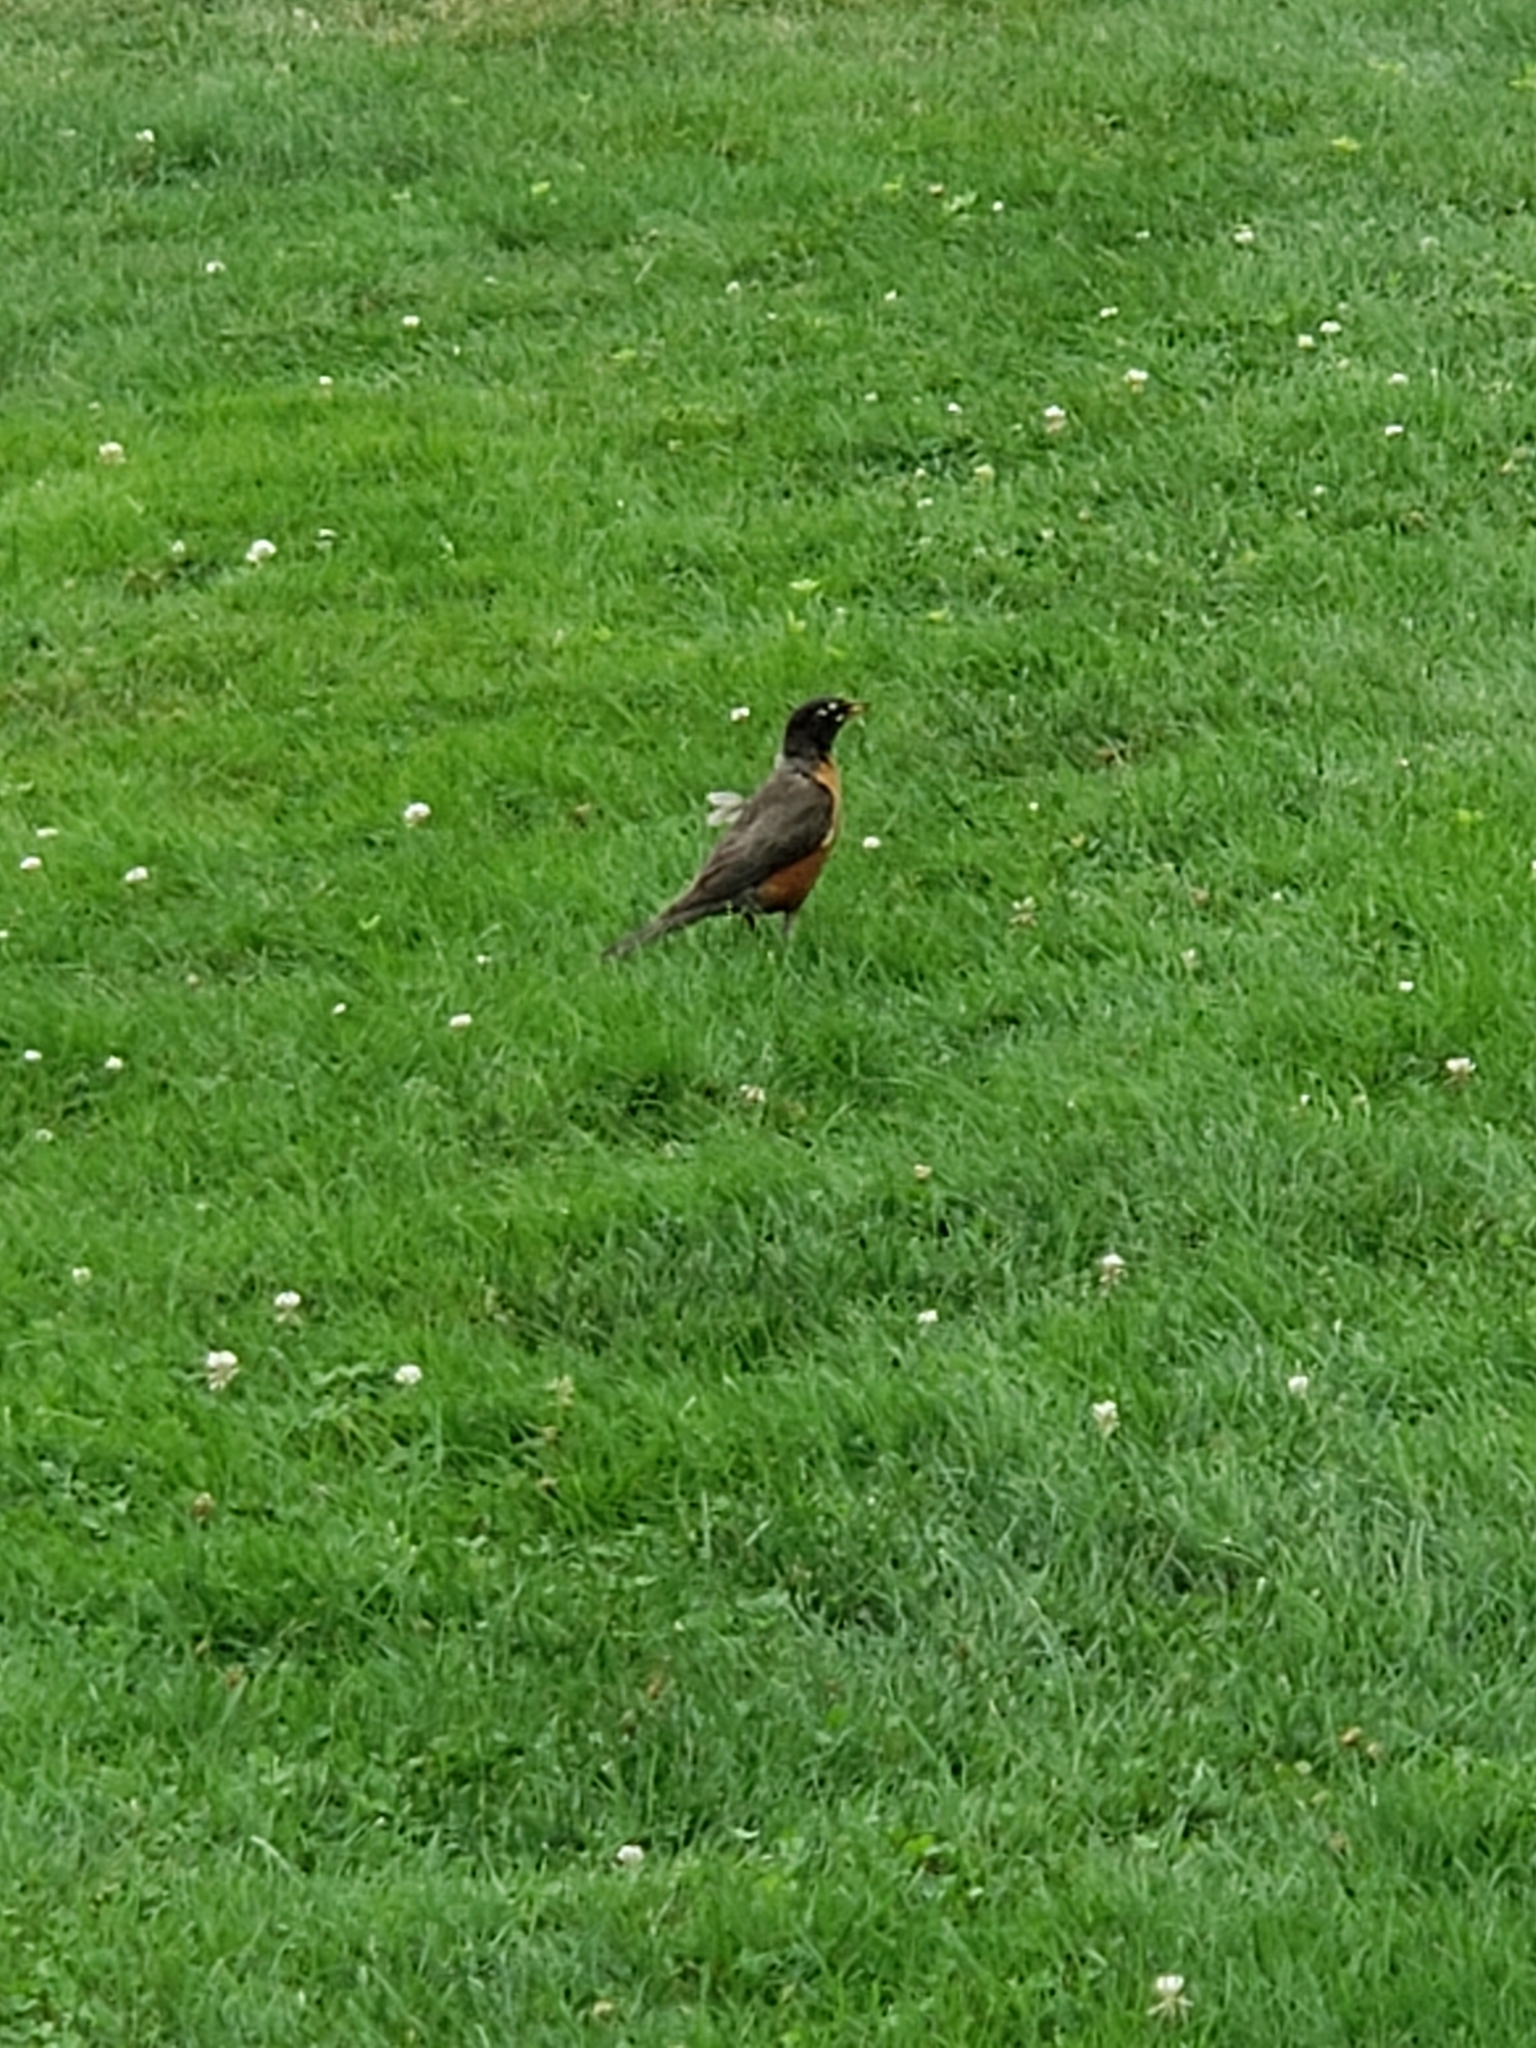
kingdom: Animalia
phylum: Chordata
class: Aves
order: Passeriformes
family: Turdidae
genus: Turdus
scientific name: Turdus migratorius
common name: American robin
